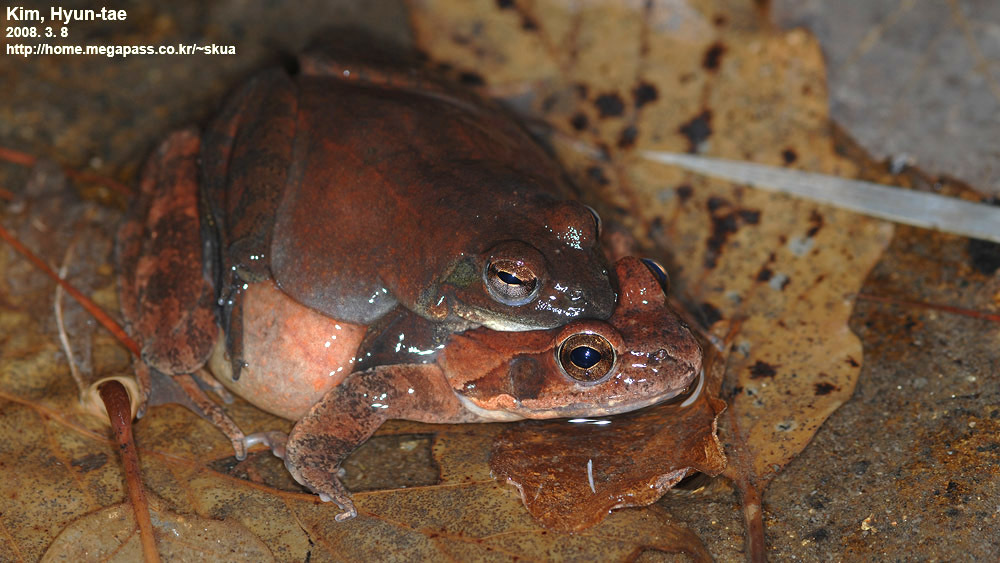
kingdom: Animalia
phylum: Chordata
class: Amphibia
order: Anura
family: Ranidae
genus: Rana
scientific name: Rana huanrenensis
